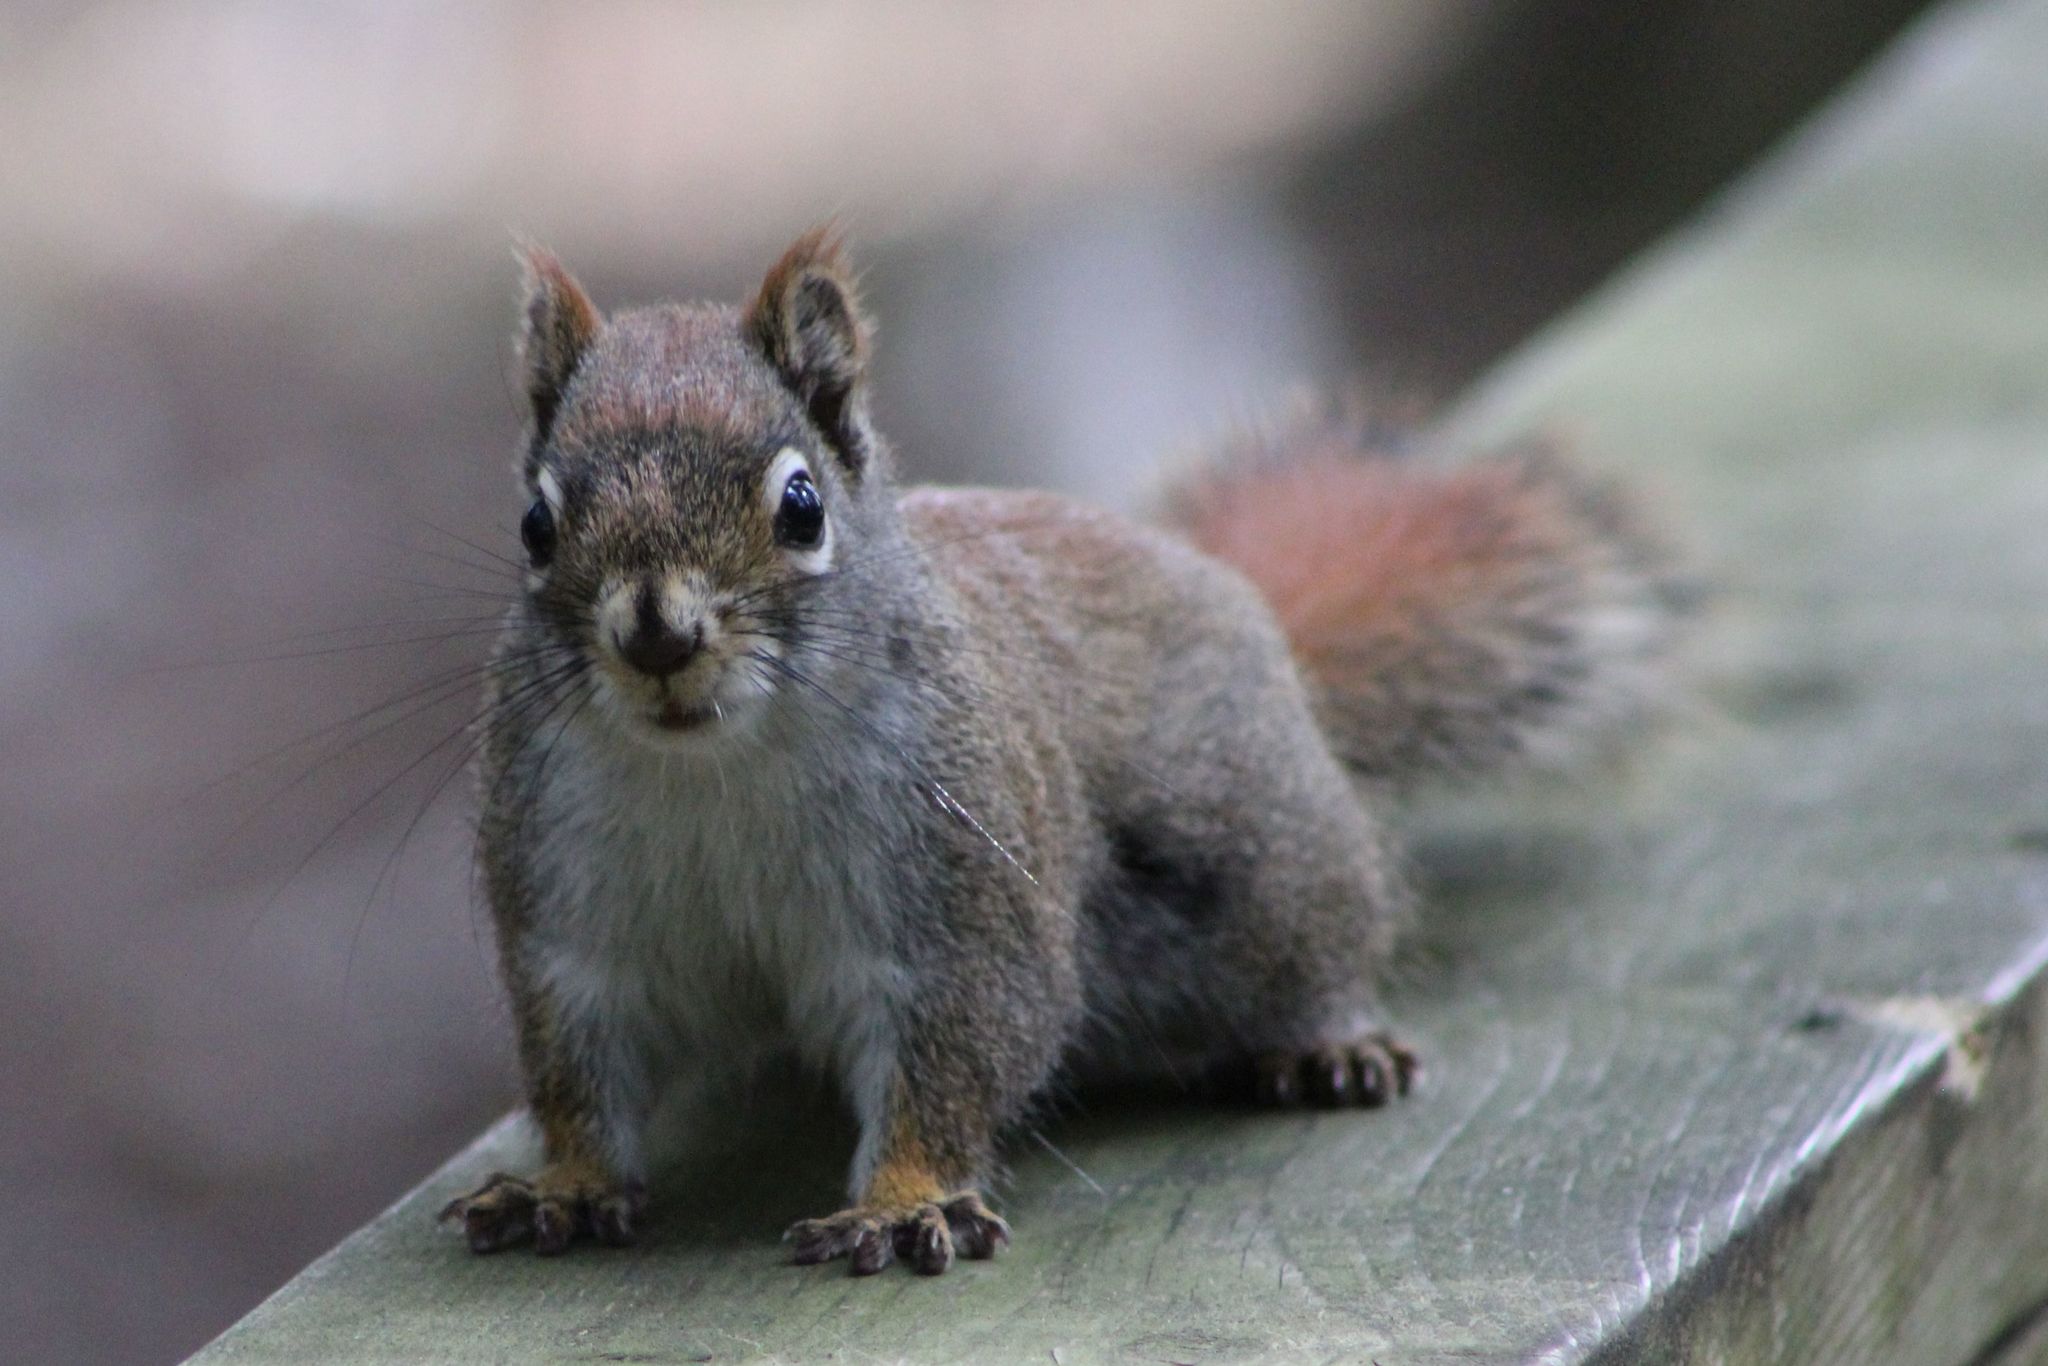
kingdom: Animalia
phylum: Chordata
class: Mammalia
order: Rodentia
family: Sciuridae
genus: Tamiasciurus
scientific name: Tamiasciurus hudsonicus
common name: Red squirrel
